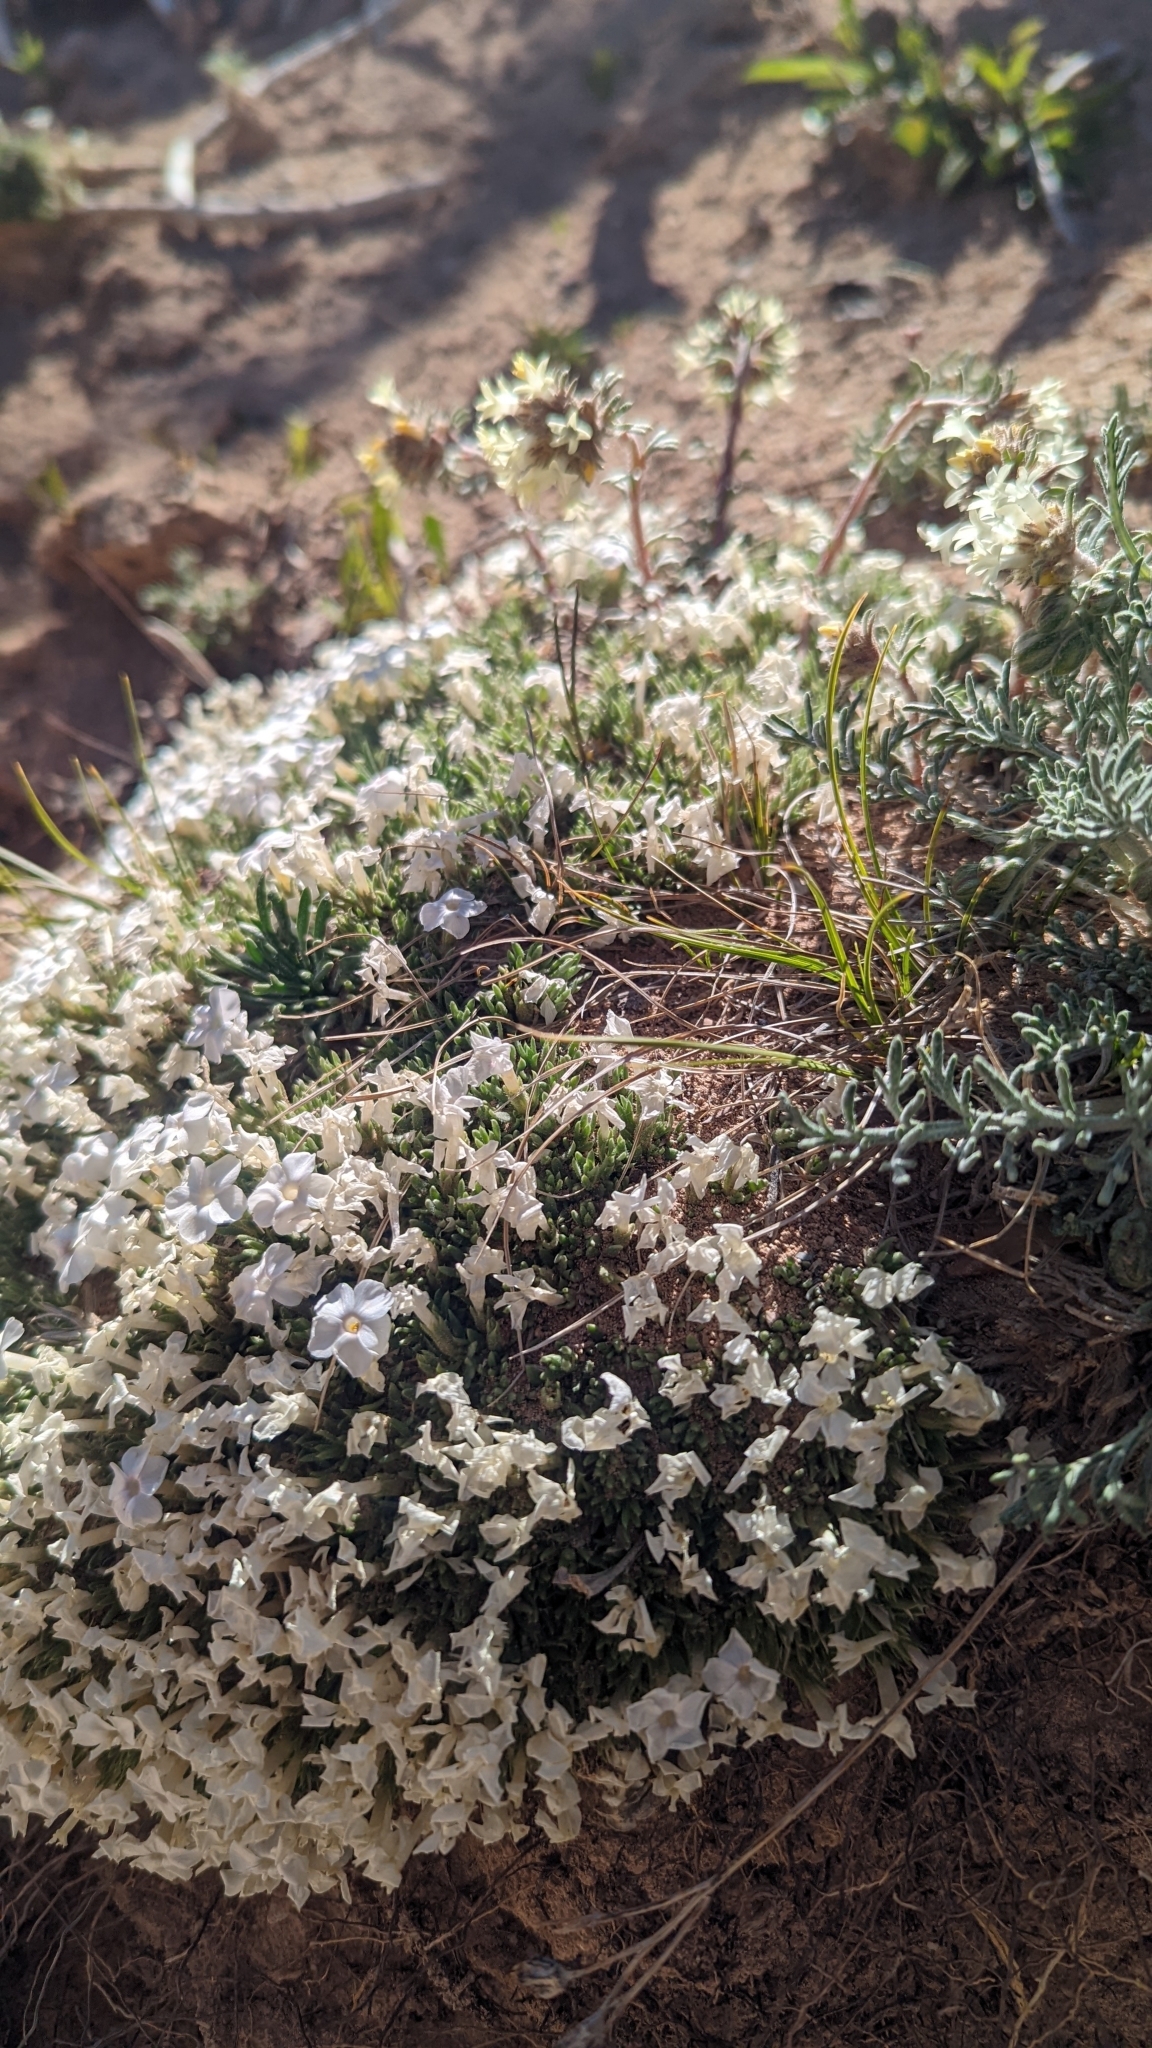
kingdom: Plantae
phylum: Tracheophyta
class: Magnoliopsida
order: Ericales
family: Polemoniaceae
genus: Phlox
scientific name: Phlox pulvinata
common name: Cushion phlox
